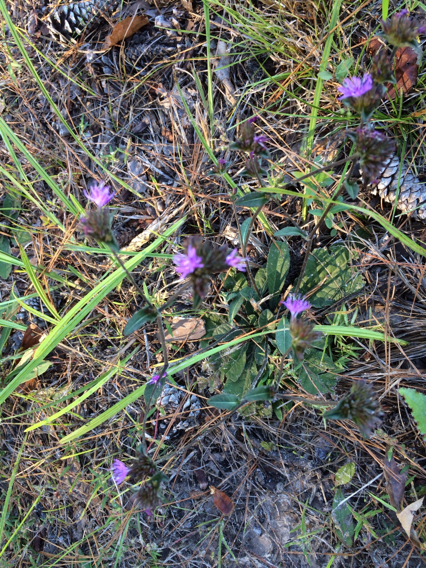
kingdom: Plantae
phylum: Tracheophyta
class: Magnoliopsida
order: Asterales
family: Asteraceae
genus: Elephantopus
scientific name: Elephantopus tomentosus
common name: Tobacco-weed
